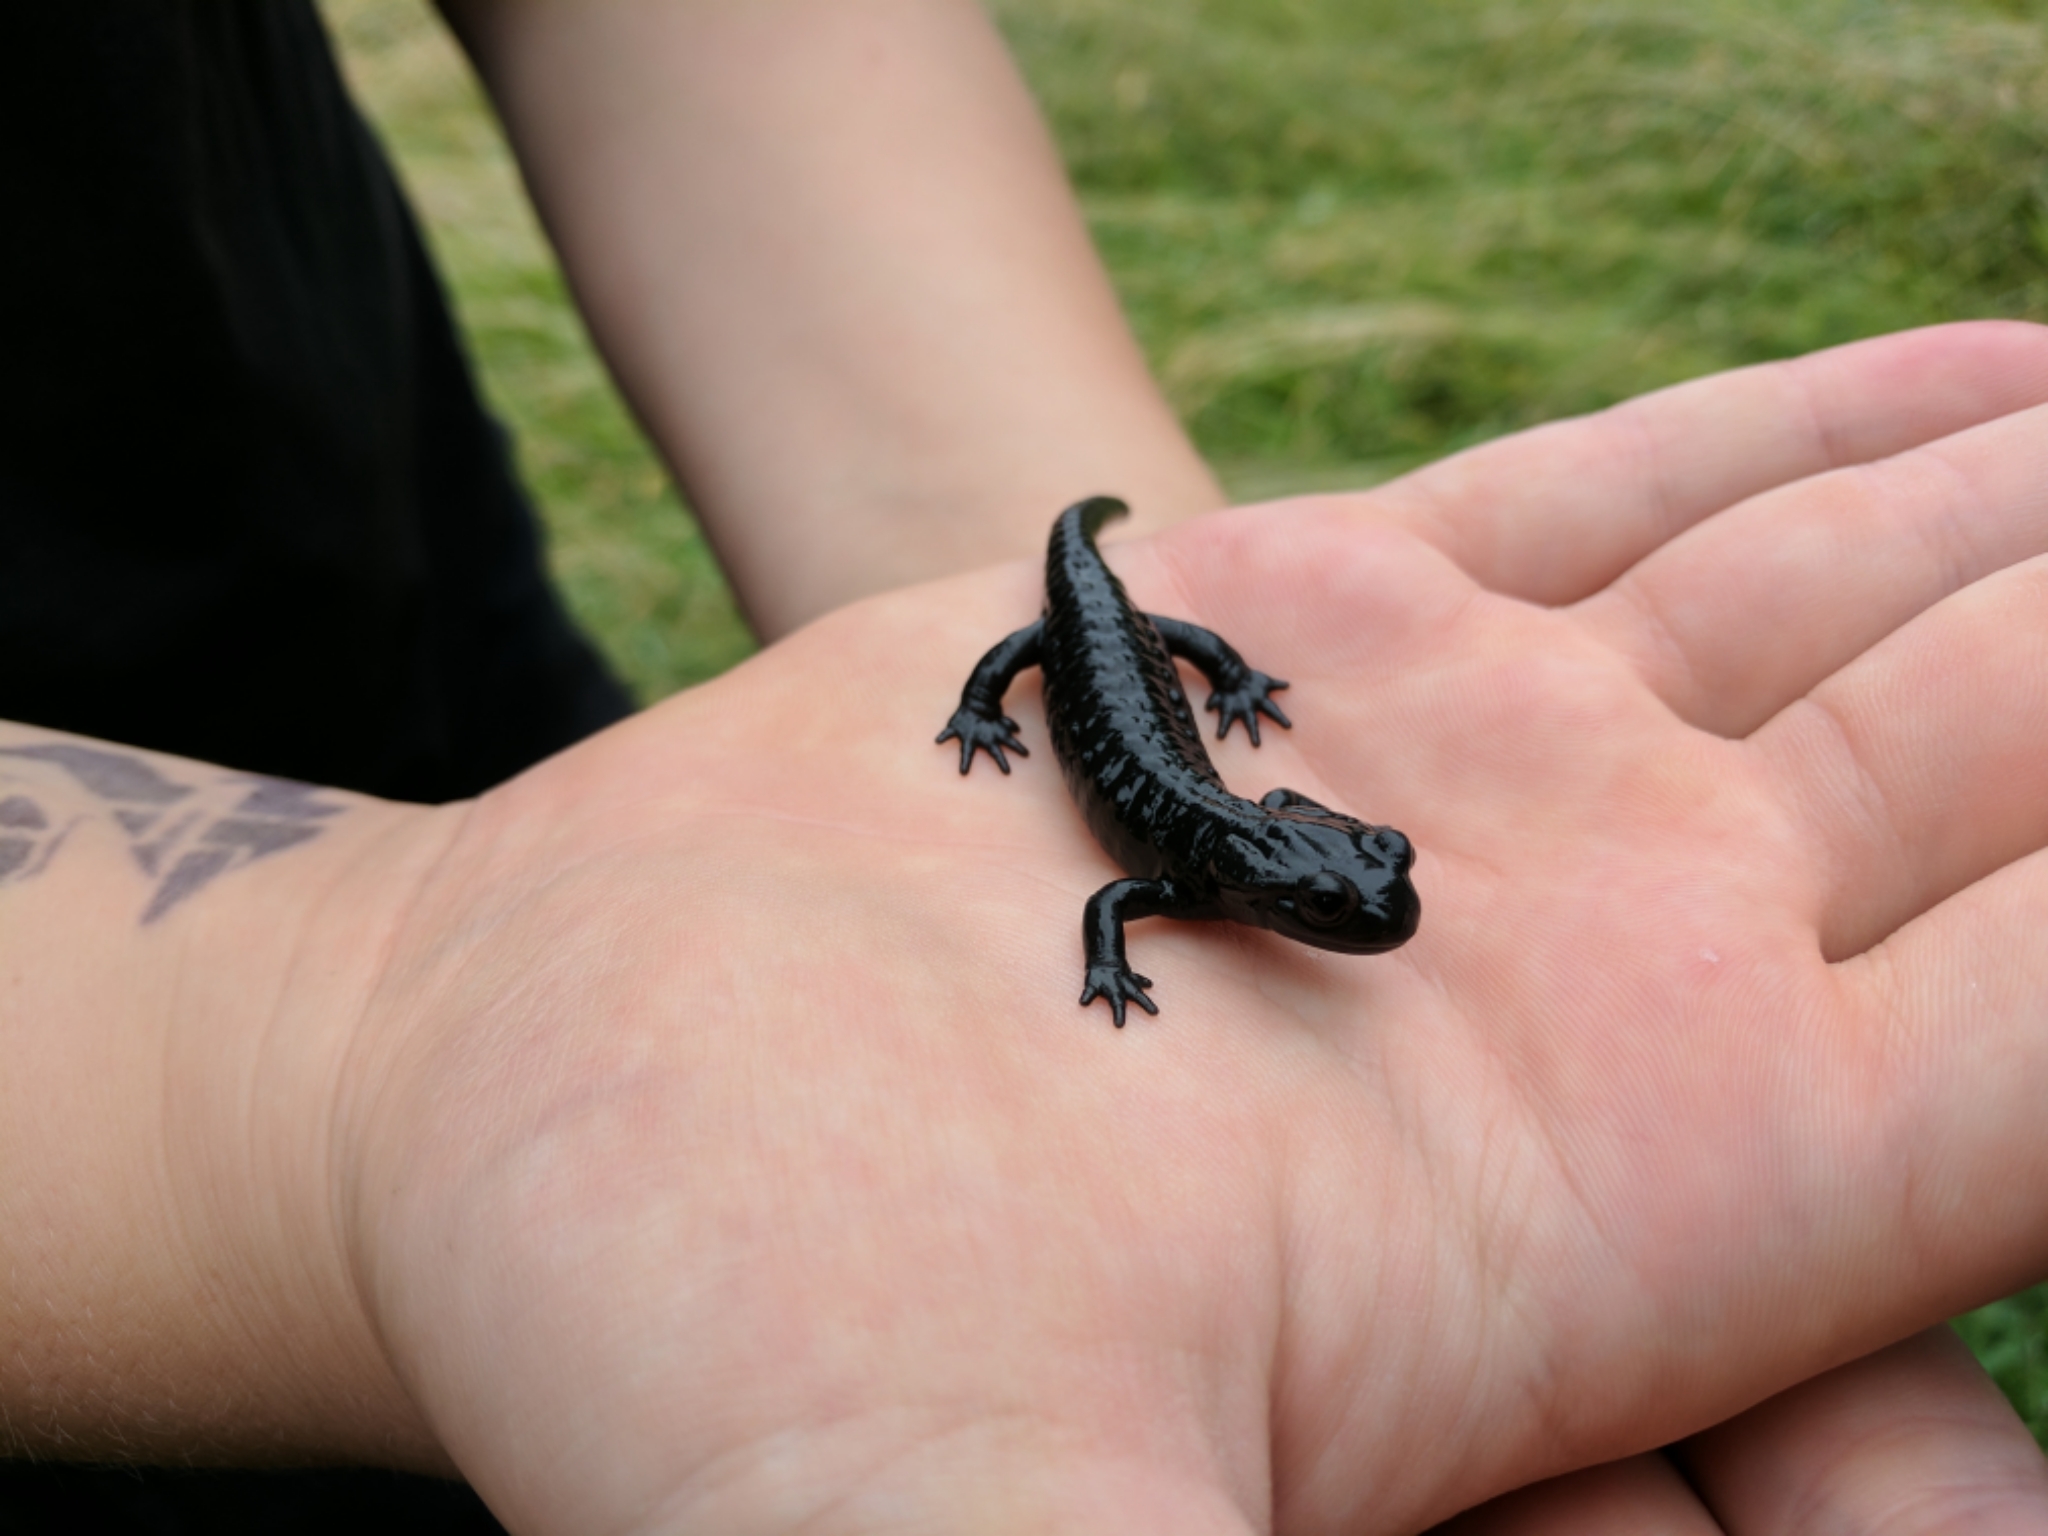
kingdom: Animalia
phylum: Chordata
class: Amphibia
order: Caudata
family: Salamandridae
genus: Salamandra
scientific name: Salamandra atra
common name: Alpine salamander
